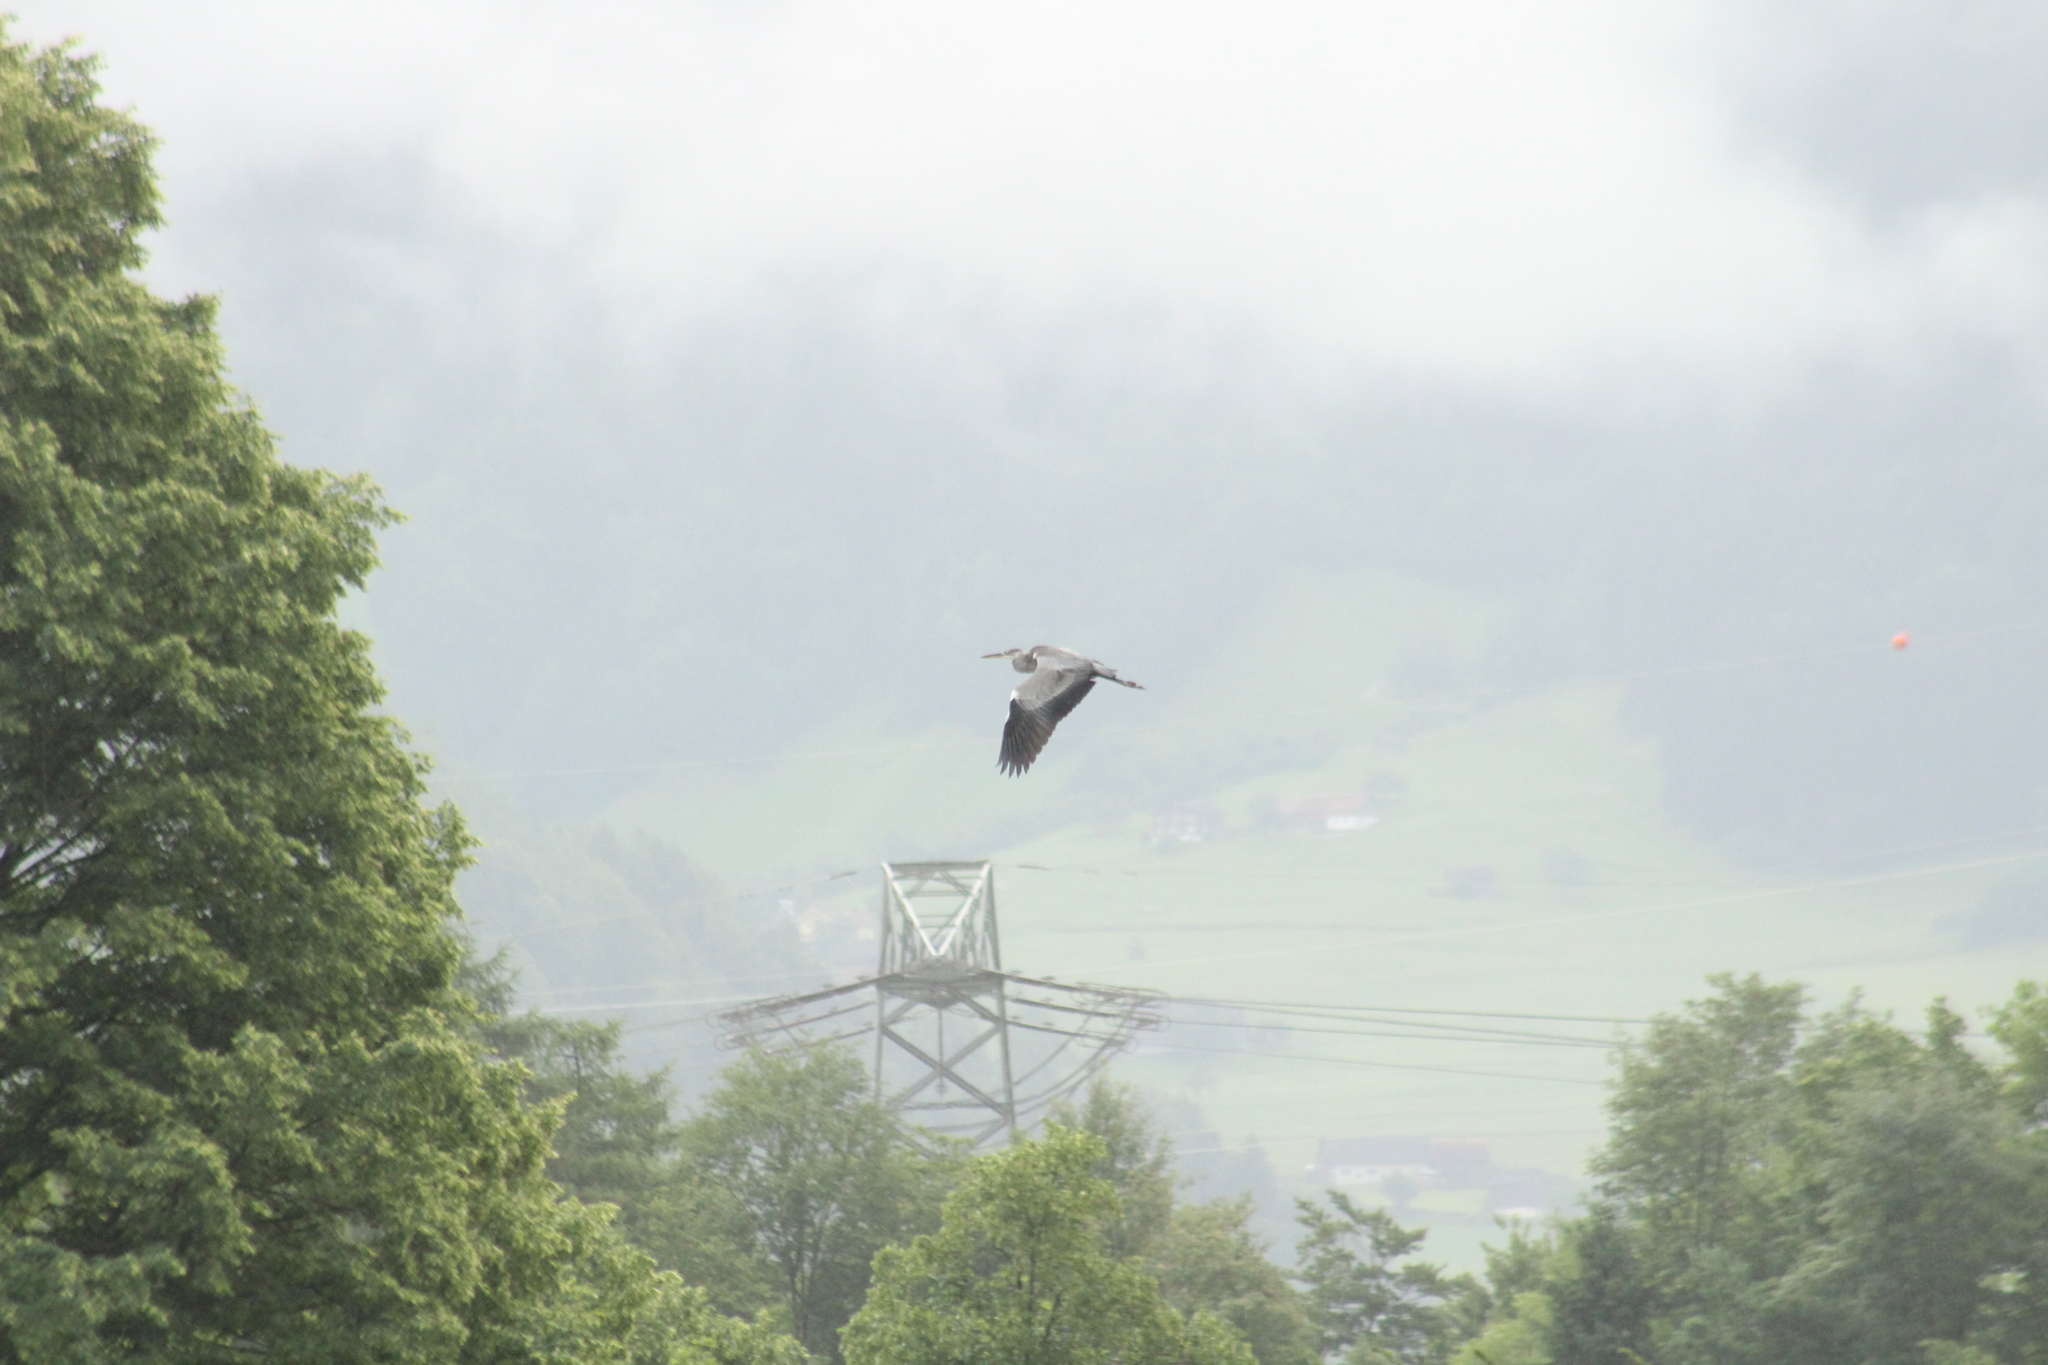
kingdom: Animalia
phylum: Chordata
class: Aves
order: Pelecaniformes
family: Ardeidae
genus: Ardea
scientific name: Ardea cinerea
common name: Grey heron
